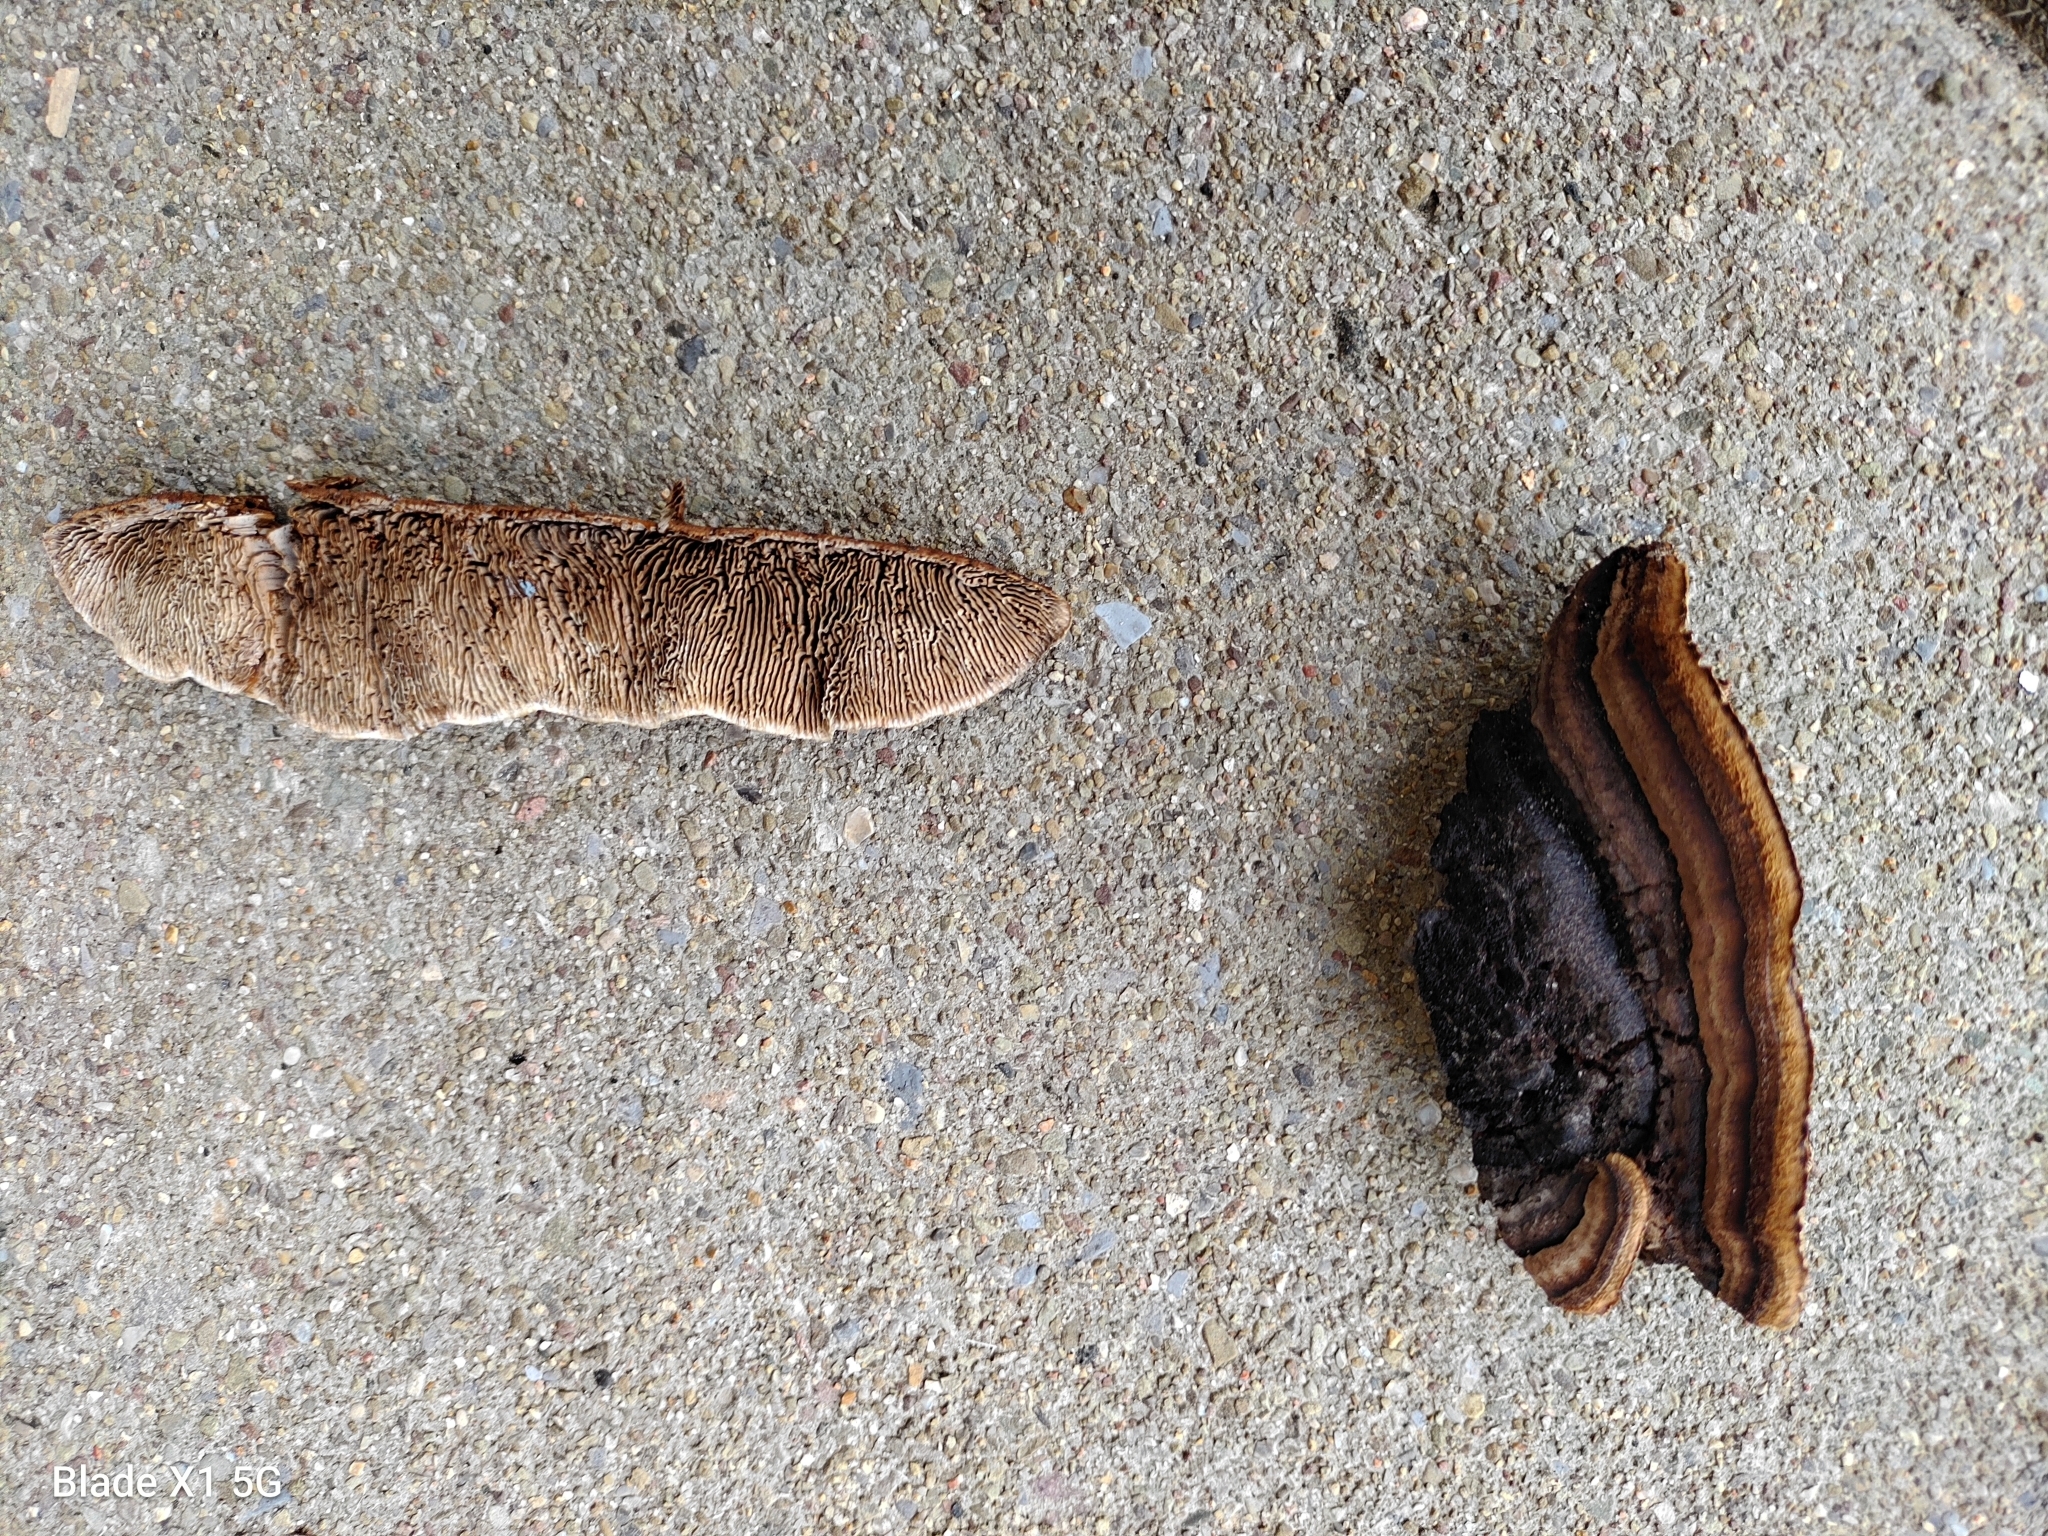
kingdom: Fungi
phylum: Basidiomycota
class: Agaricomycetes
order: Gloeophyllales
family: Gloeophyllaceae
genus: Gloeophyllum
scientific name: Gloeophyllum sepiarium
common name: Conifer mazegill
